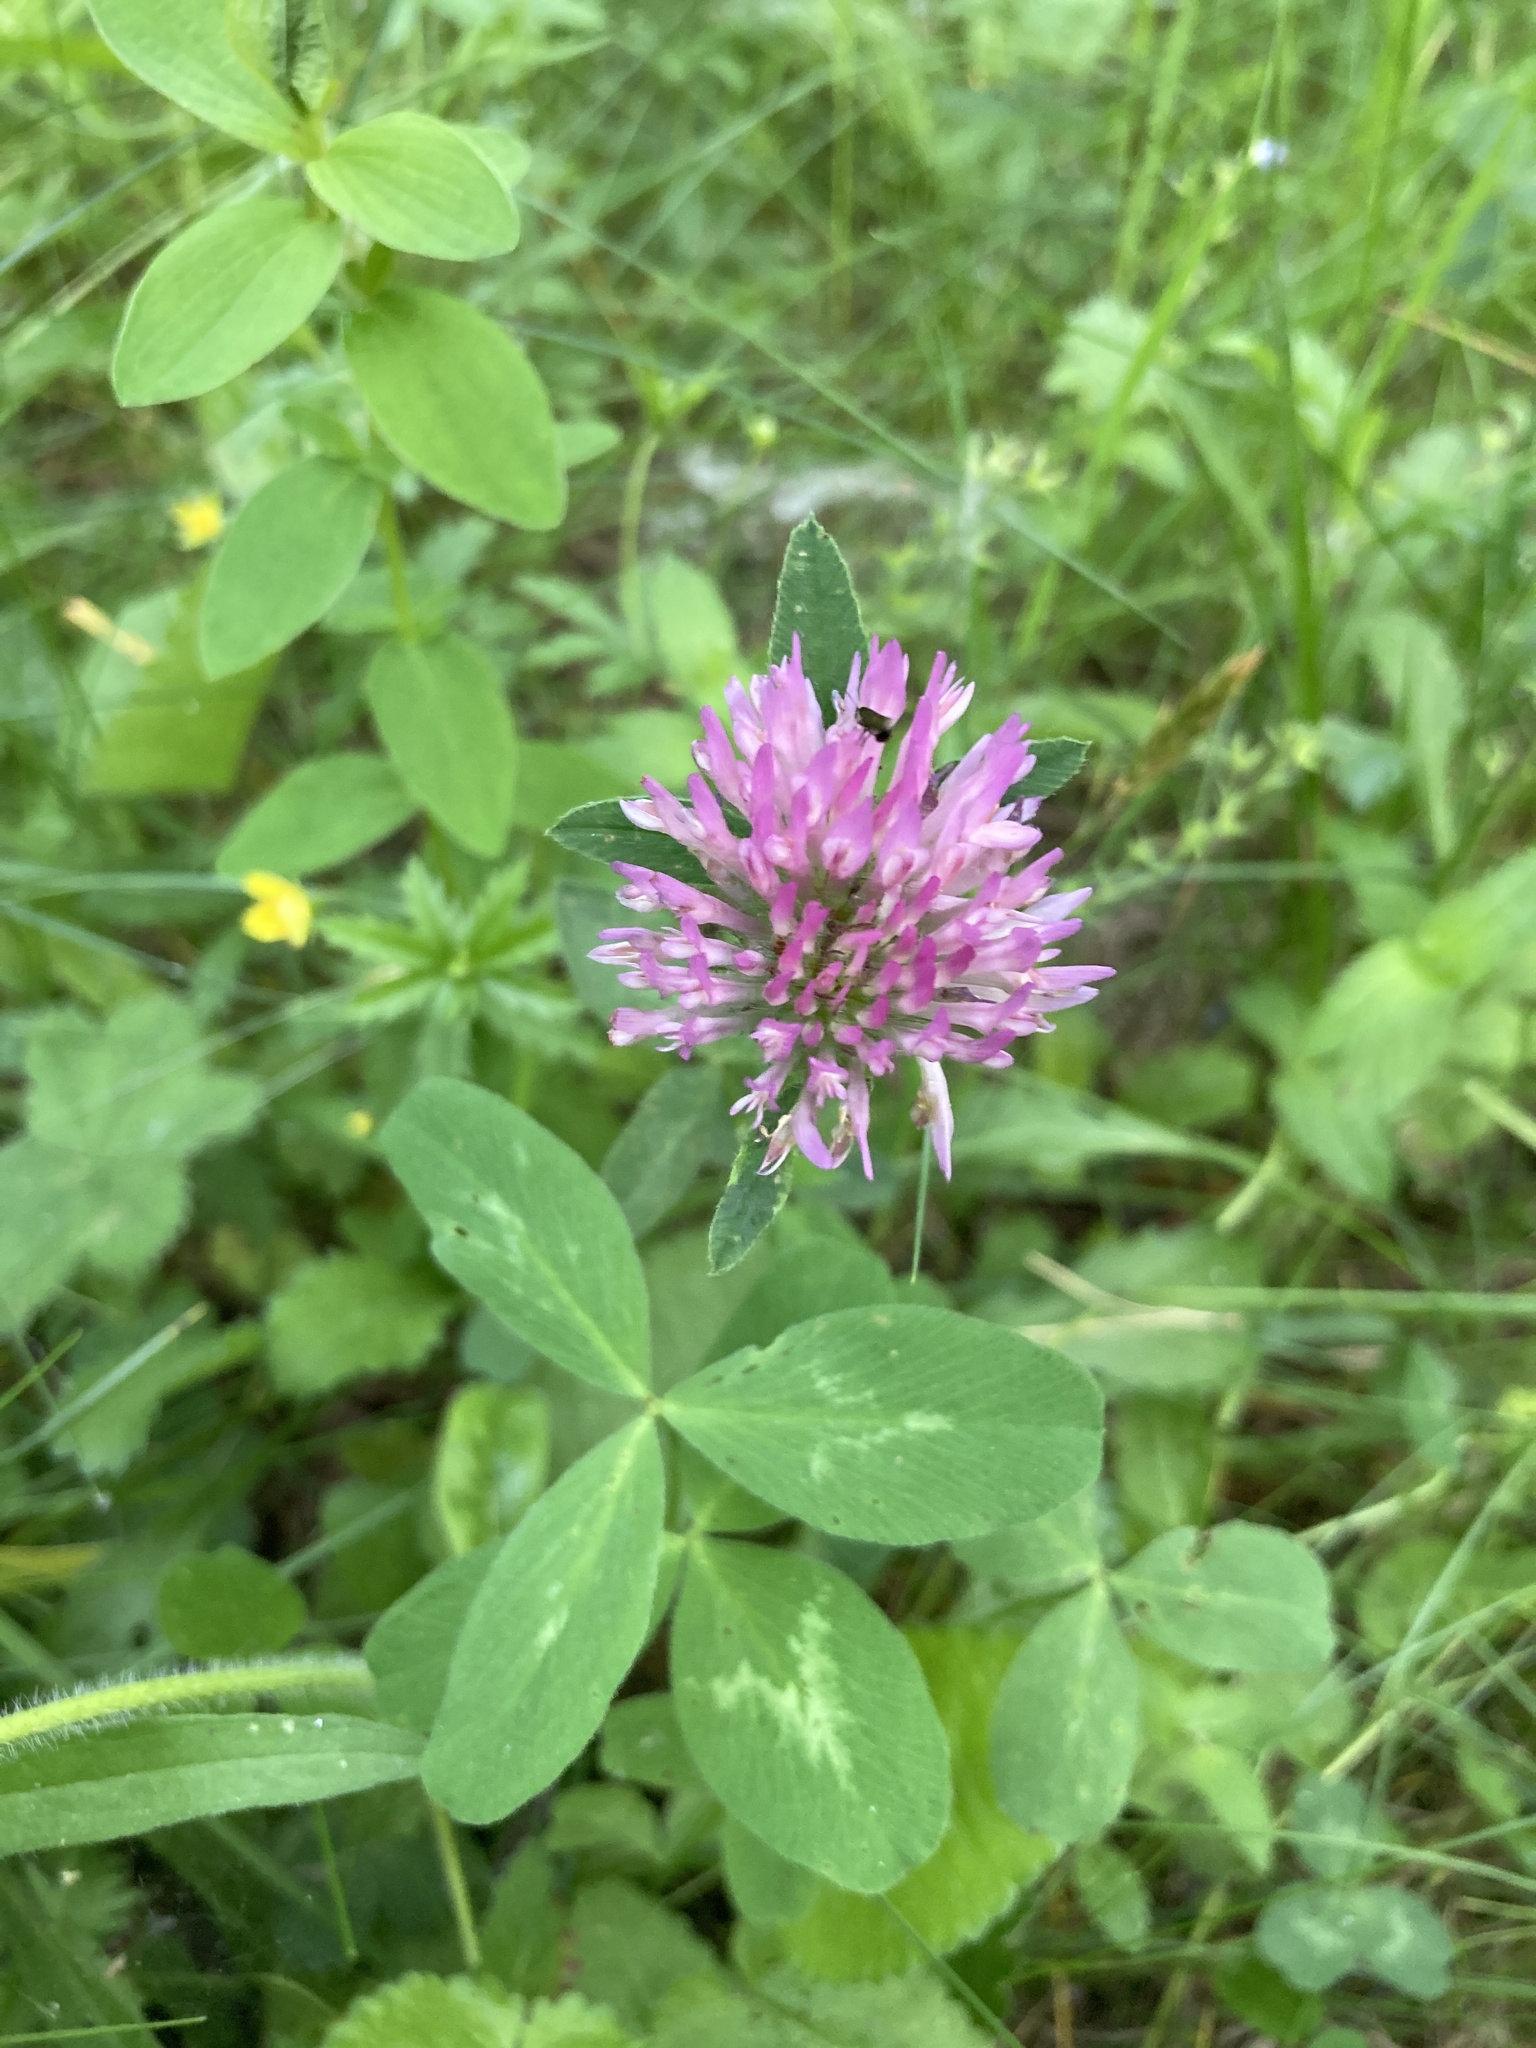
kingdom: Plantae
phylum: Tracheophyta
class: Magnoliopsida
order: Fabales
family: Fabaceae
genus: Trifolium
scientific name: Trifolium pratense
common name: Red clover
